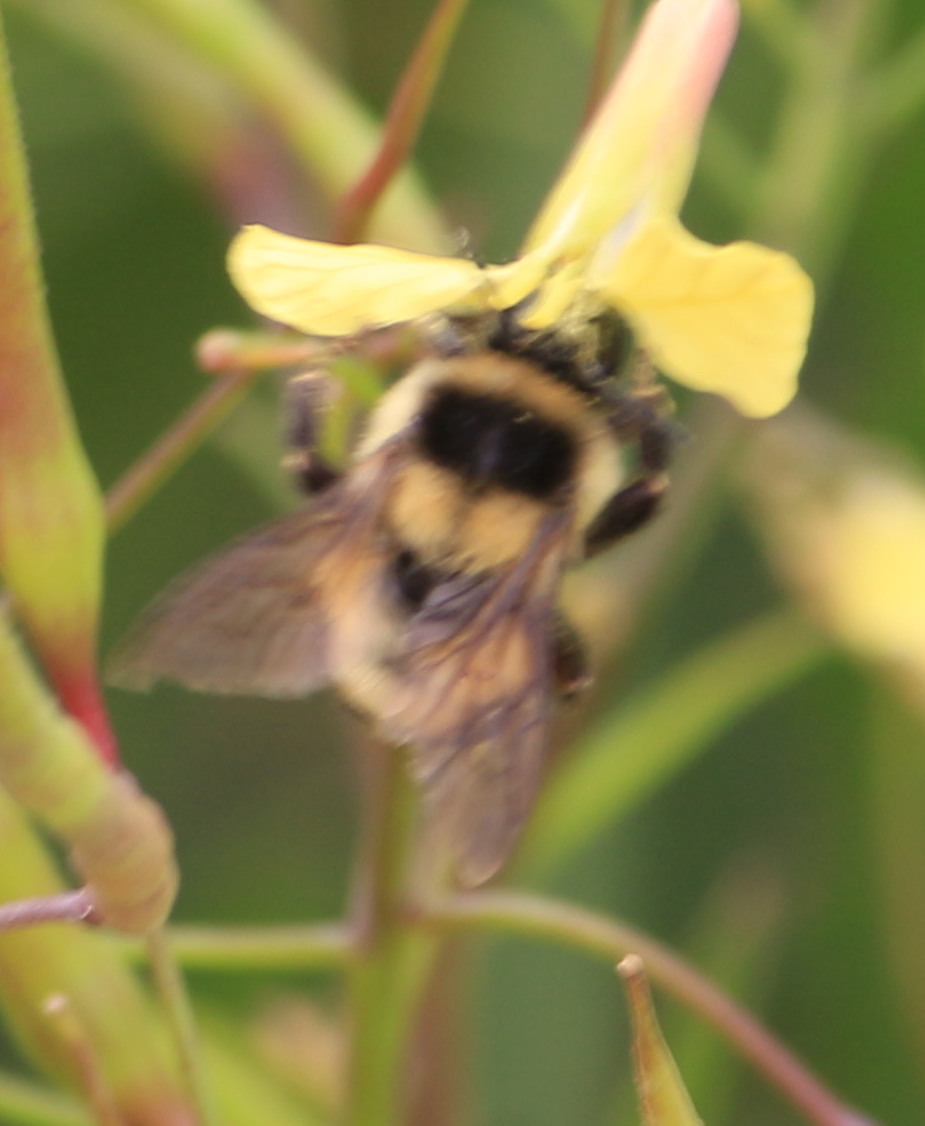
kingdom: Animalia
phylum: Arthropoda
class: Insecta
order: Hymenoptera
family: Apidae
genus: Bombus
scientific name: Bombus wilmattae
